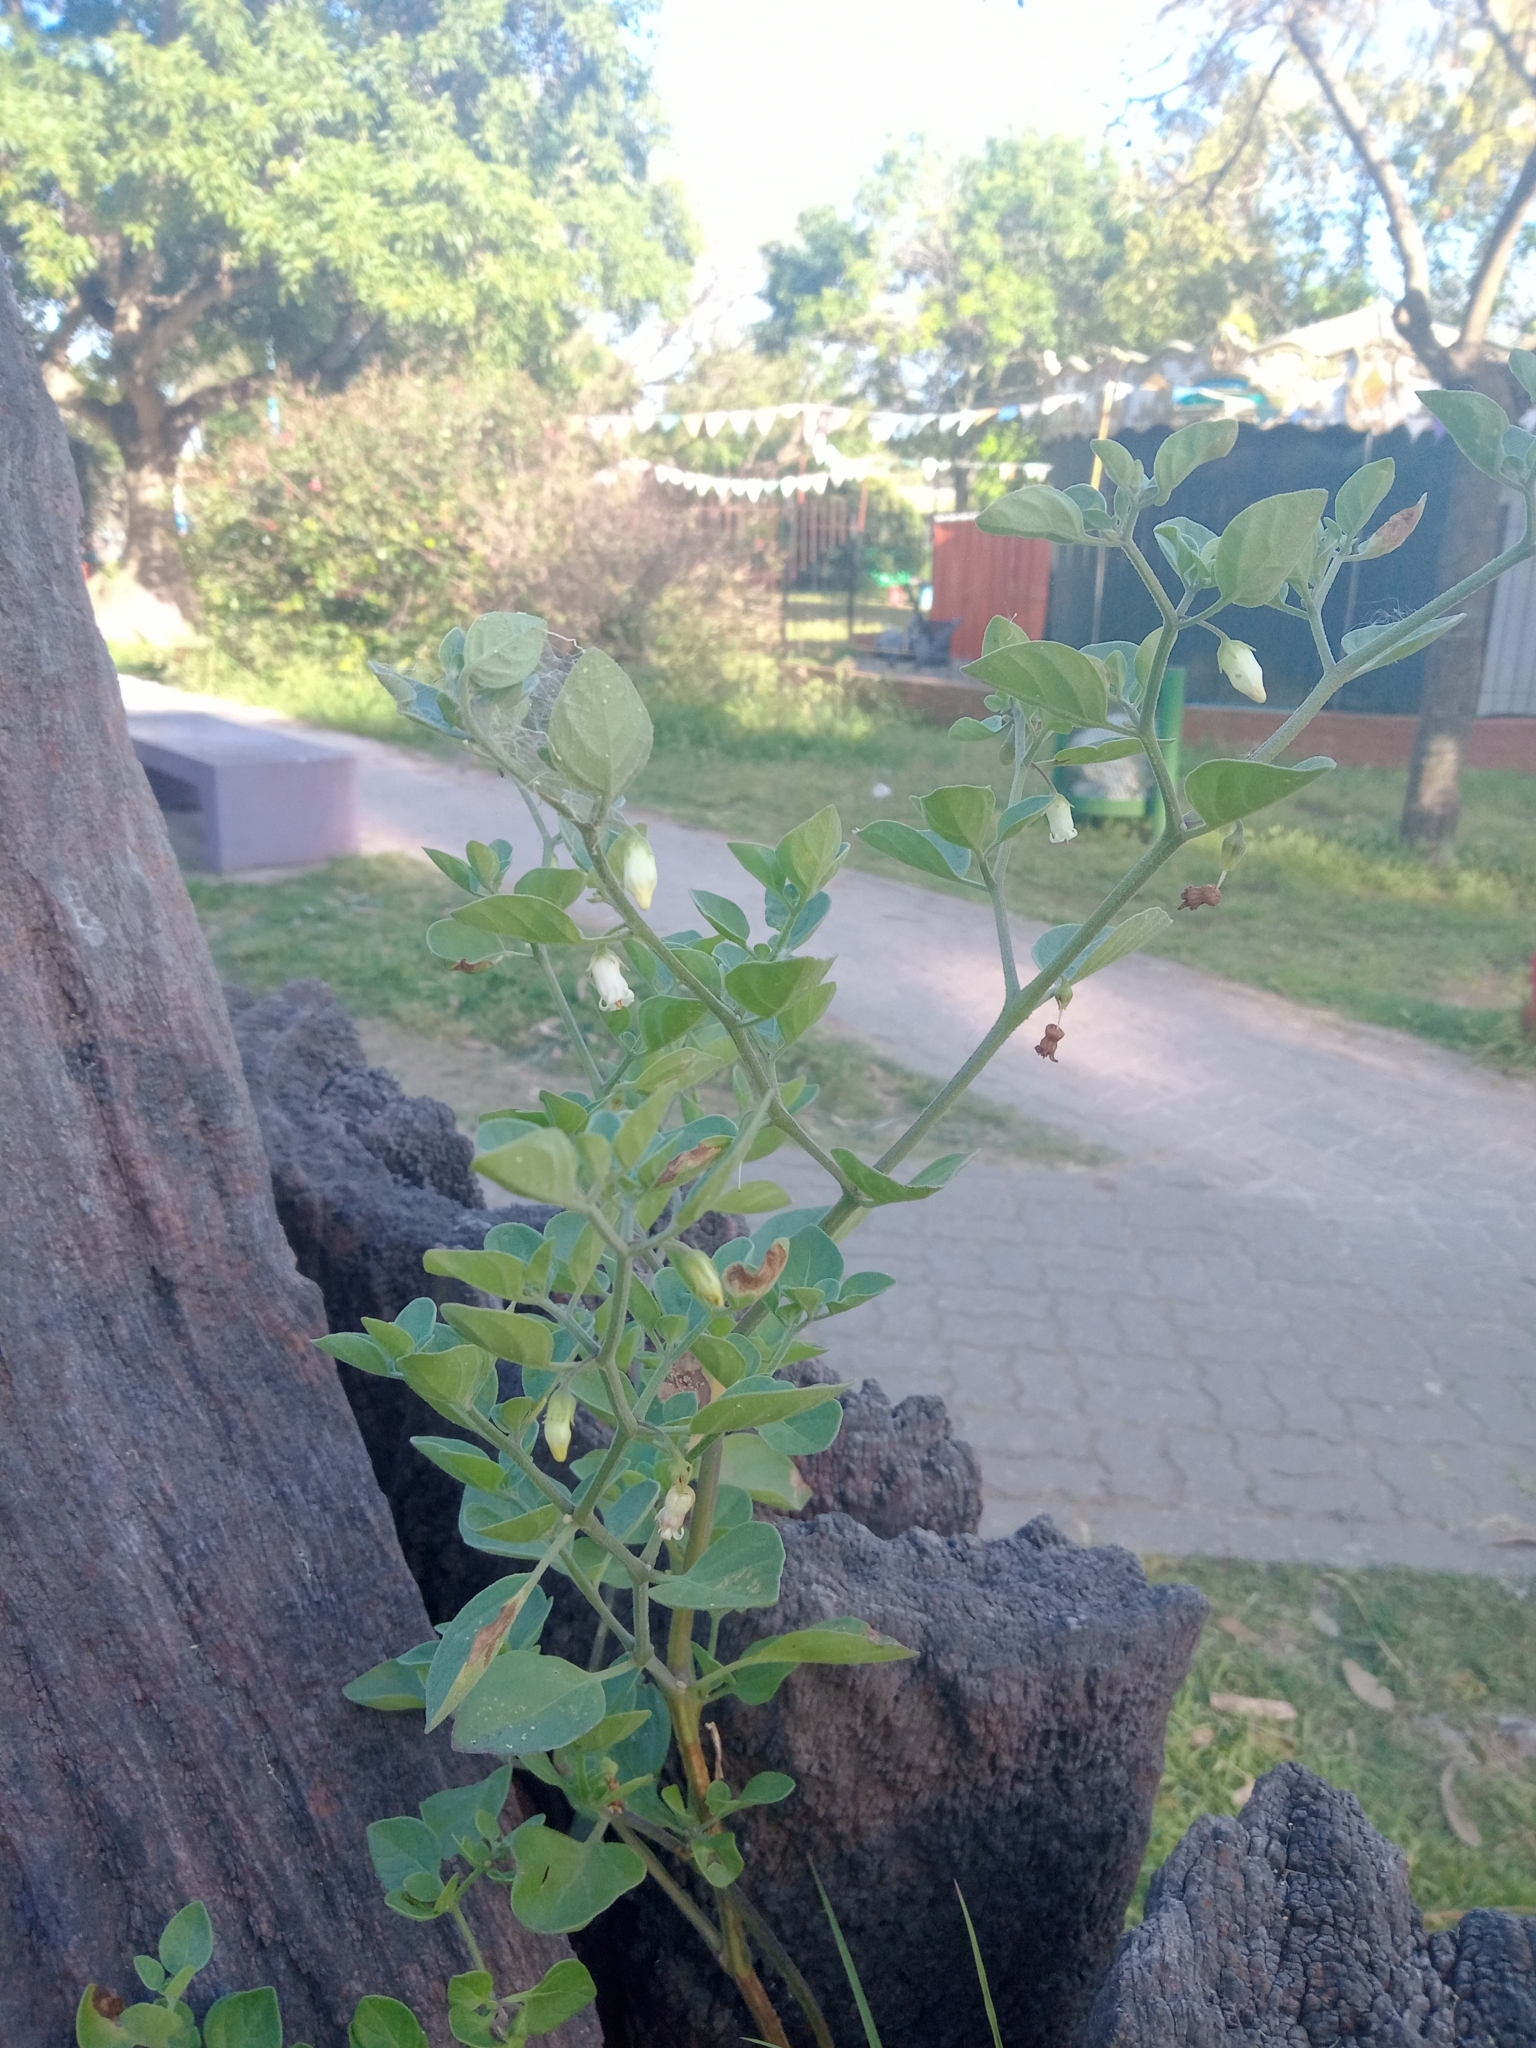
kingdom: Plantae
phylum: Tracheophyta
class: Magnoliopsida
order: Solanales
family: Solanaceae
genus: Salpichroa
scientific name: Salpichroa origanifolia
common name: Lily-of-the-valley-vine
